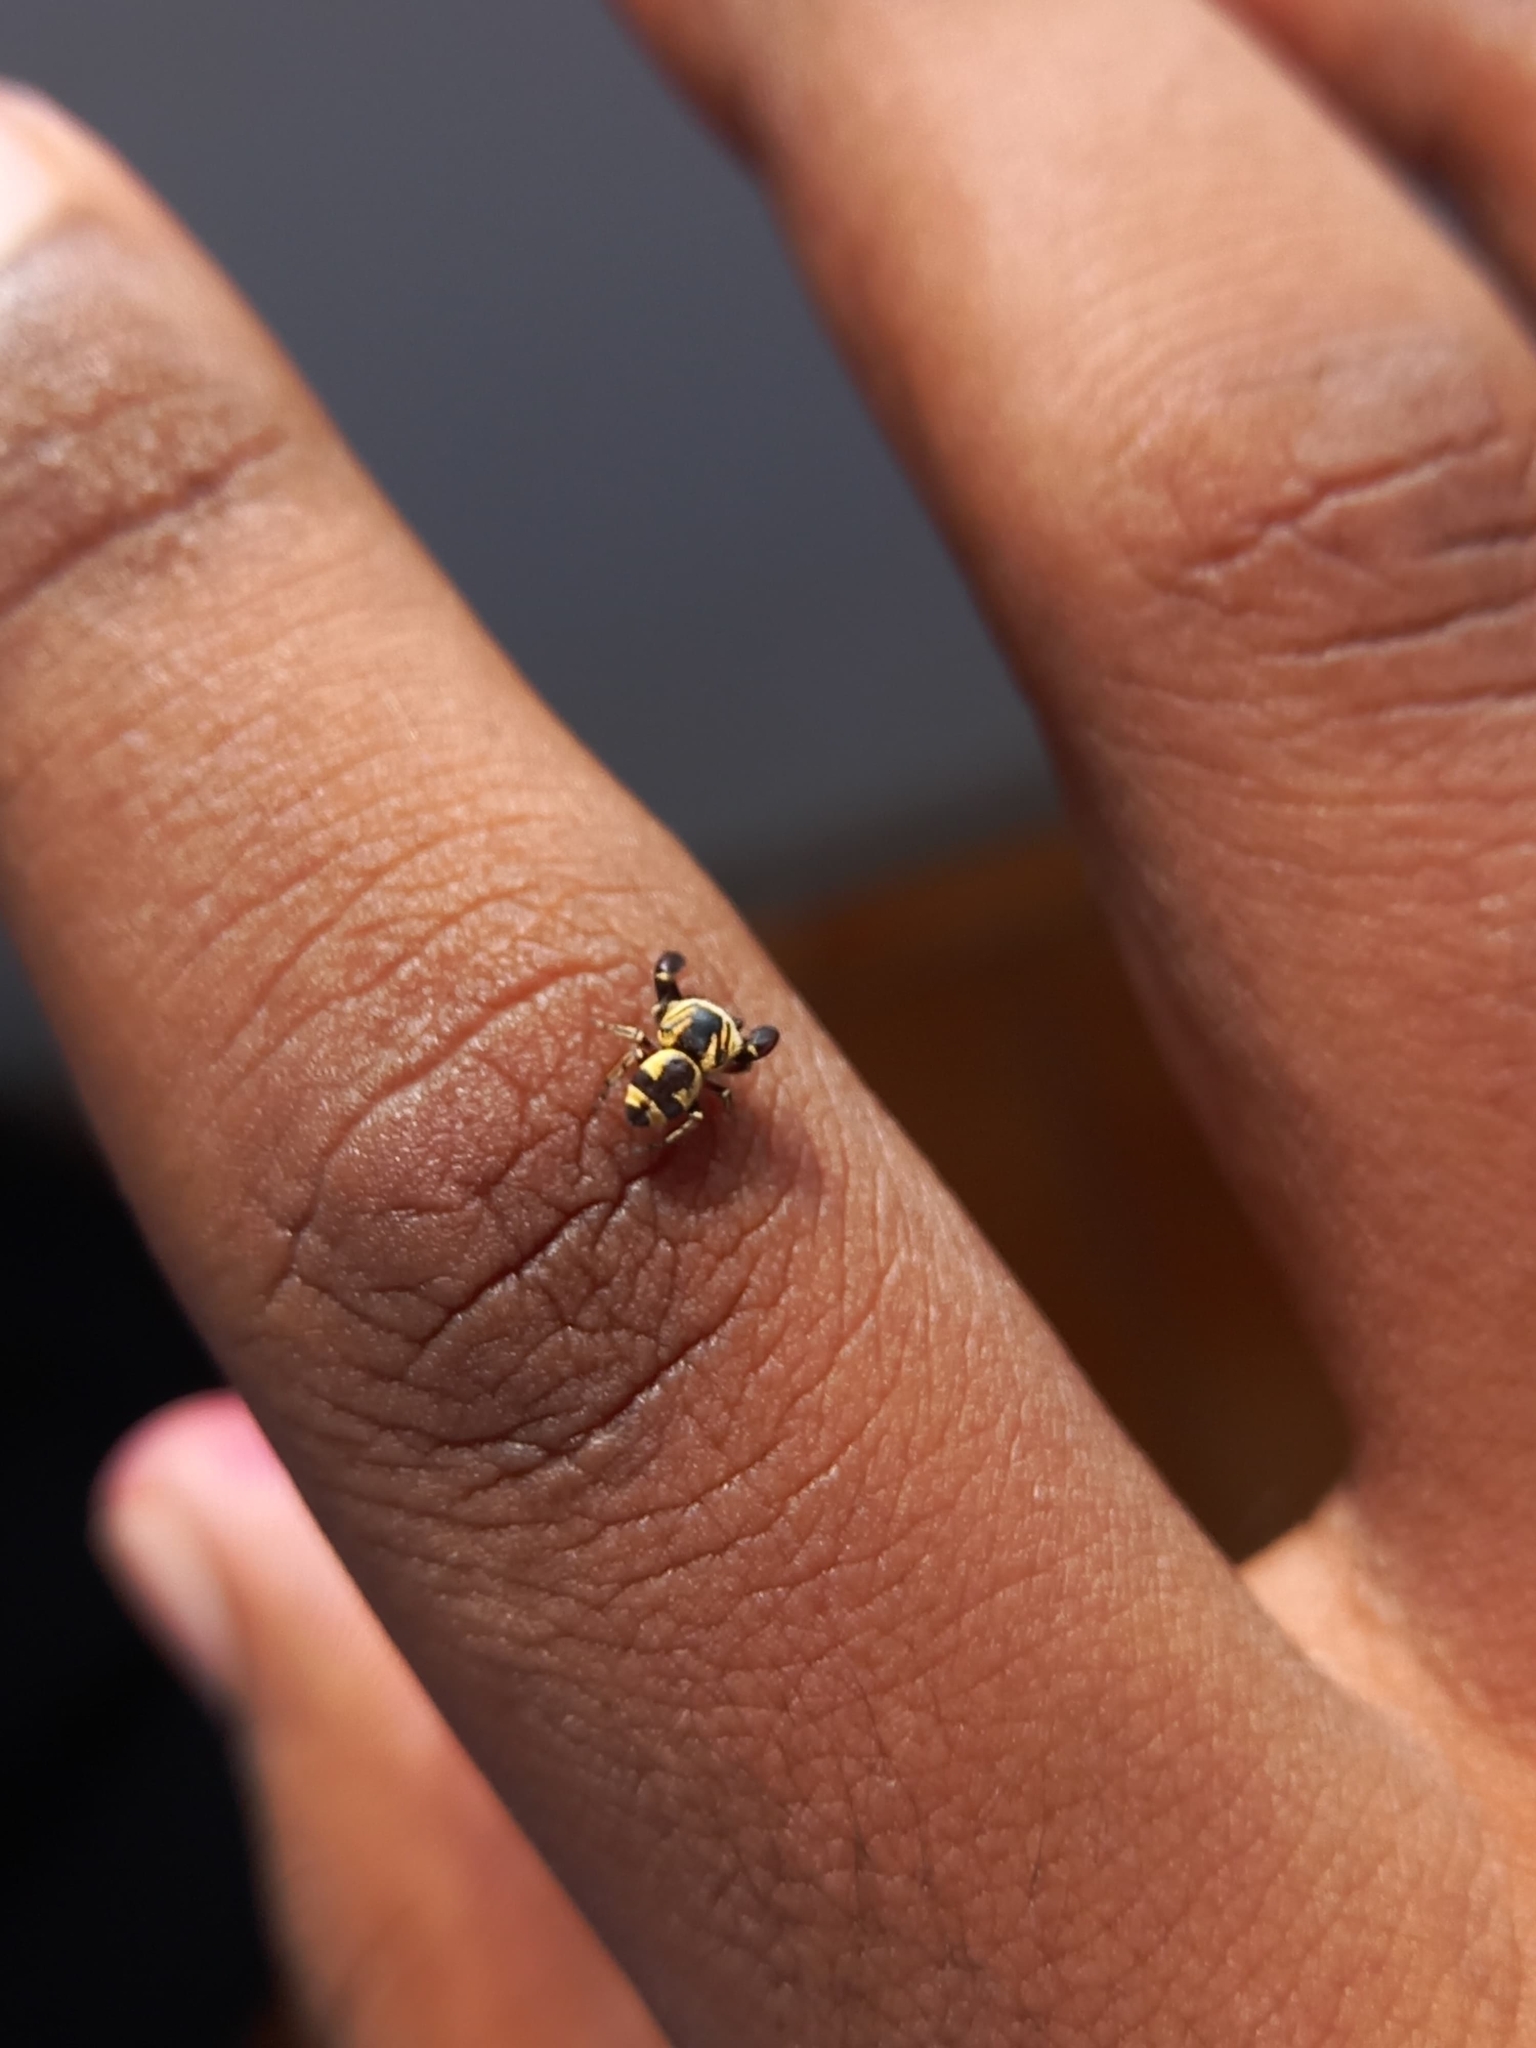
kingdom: Animalia
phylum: Arthropoda
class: Arachnida
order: Araneae
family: Salticidae
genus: Rhene
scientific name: Rhene flavicomans
